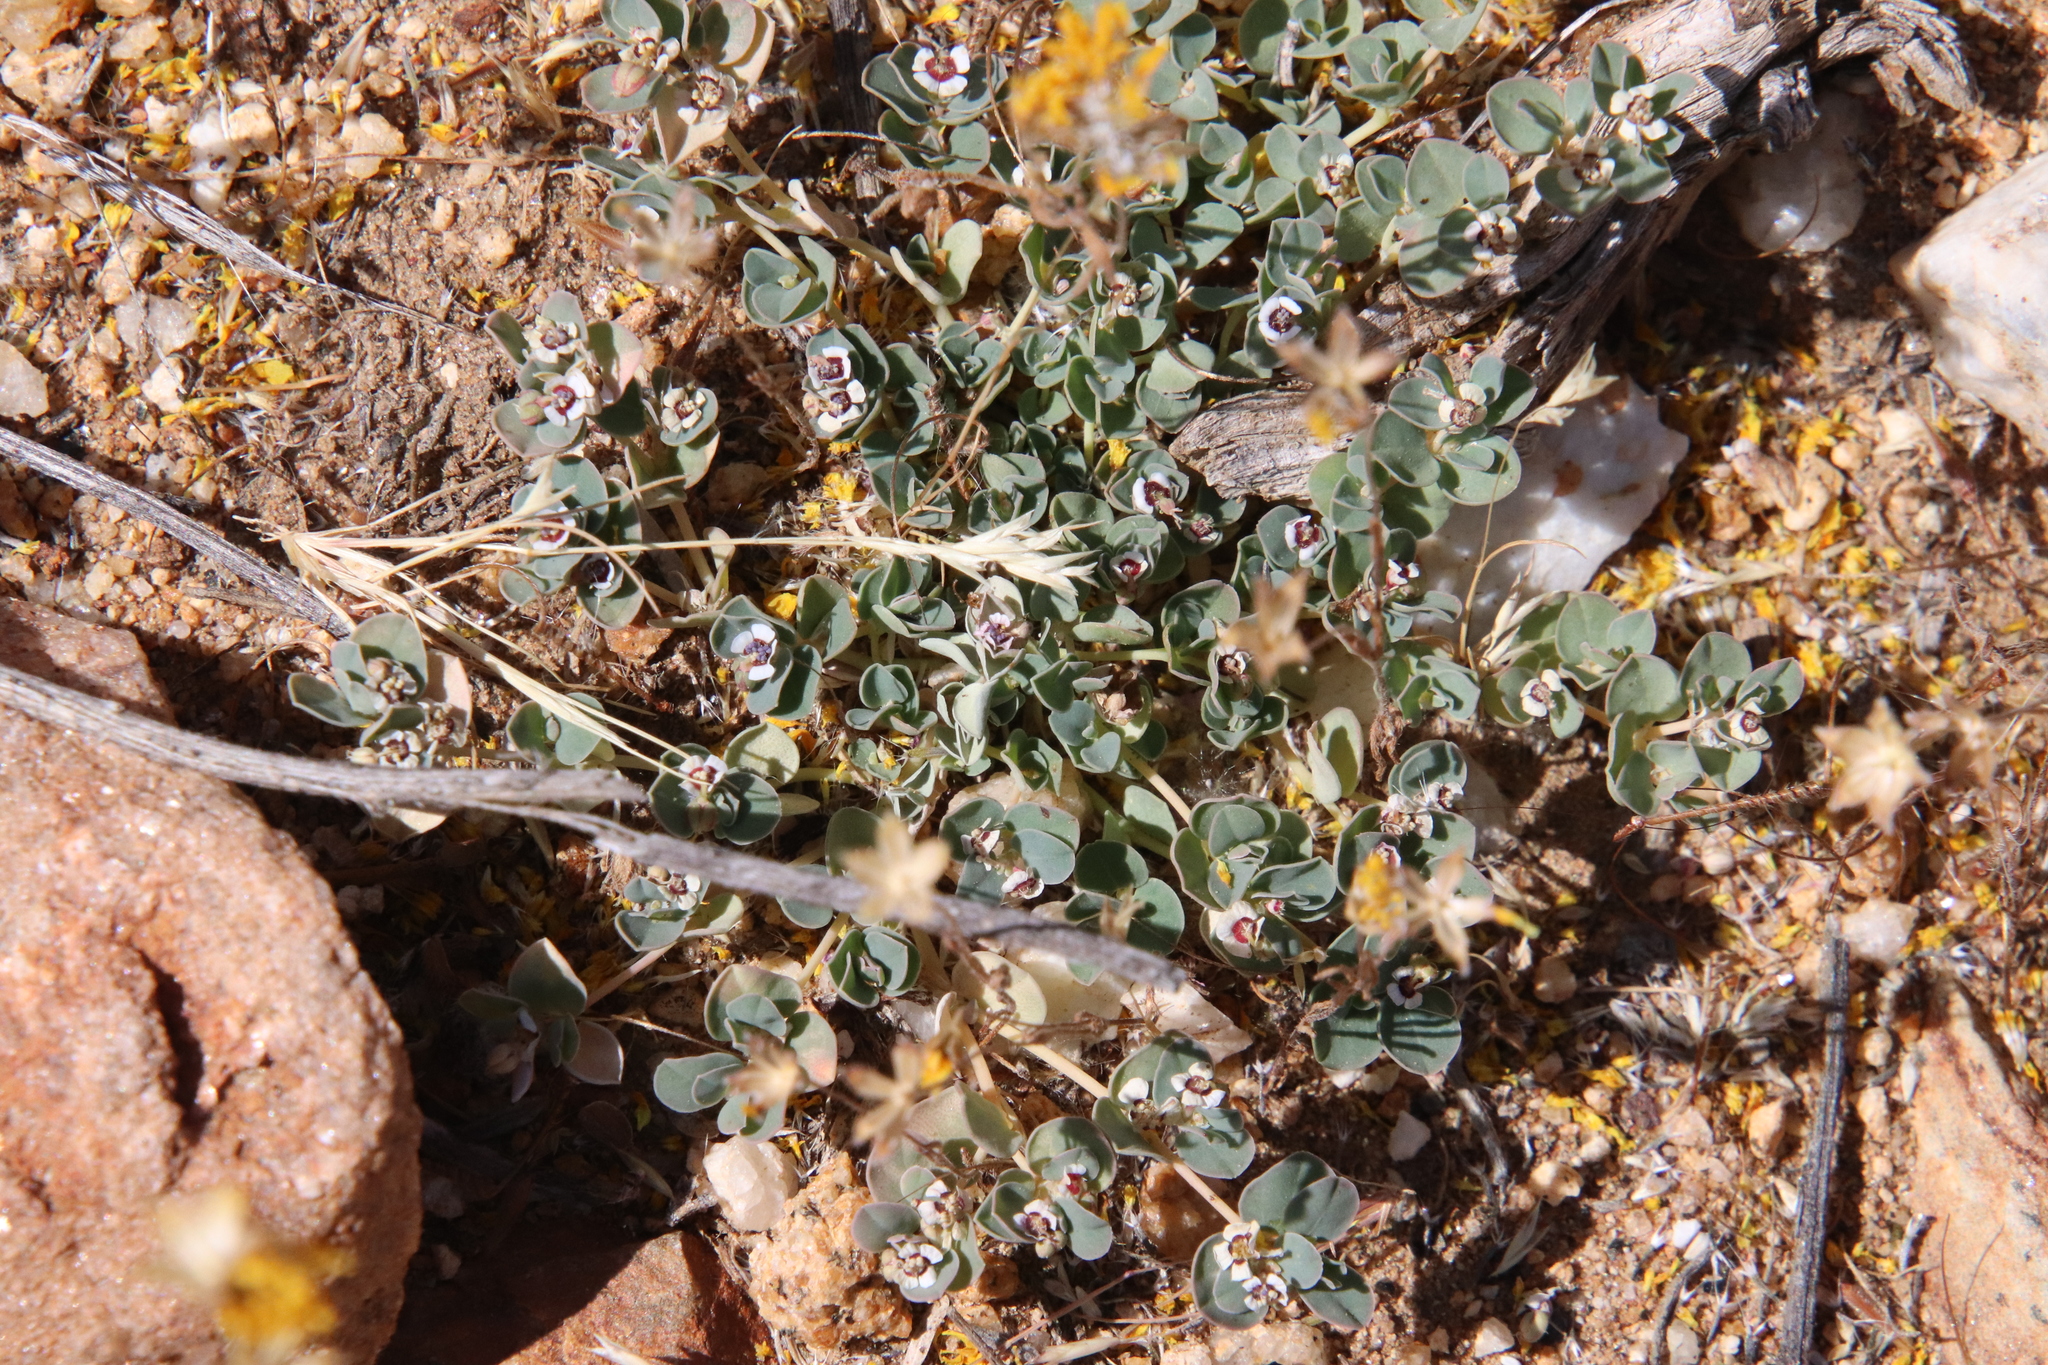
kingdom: Plantae
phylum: Tracheophyta
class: Magnoliopsida
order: Malpighiales
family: Euphorbiaceae
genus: Euphorbia
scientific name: Euphorbia albomarginata
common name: Whitemargin sandmat
